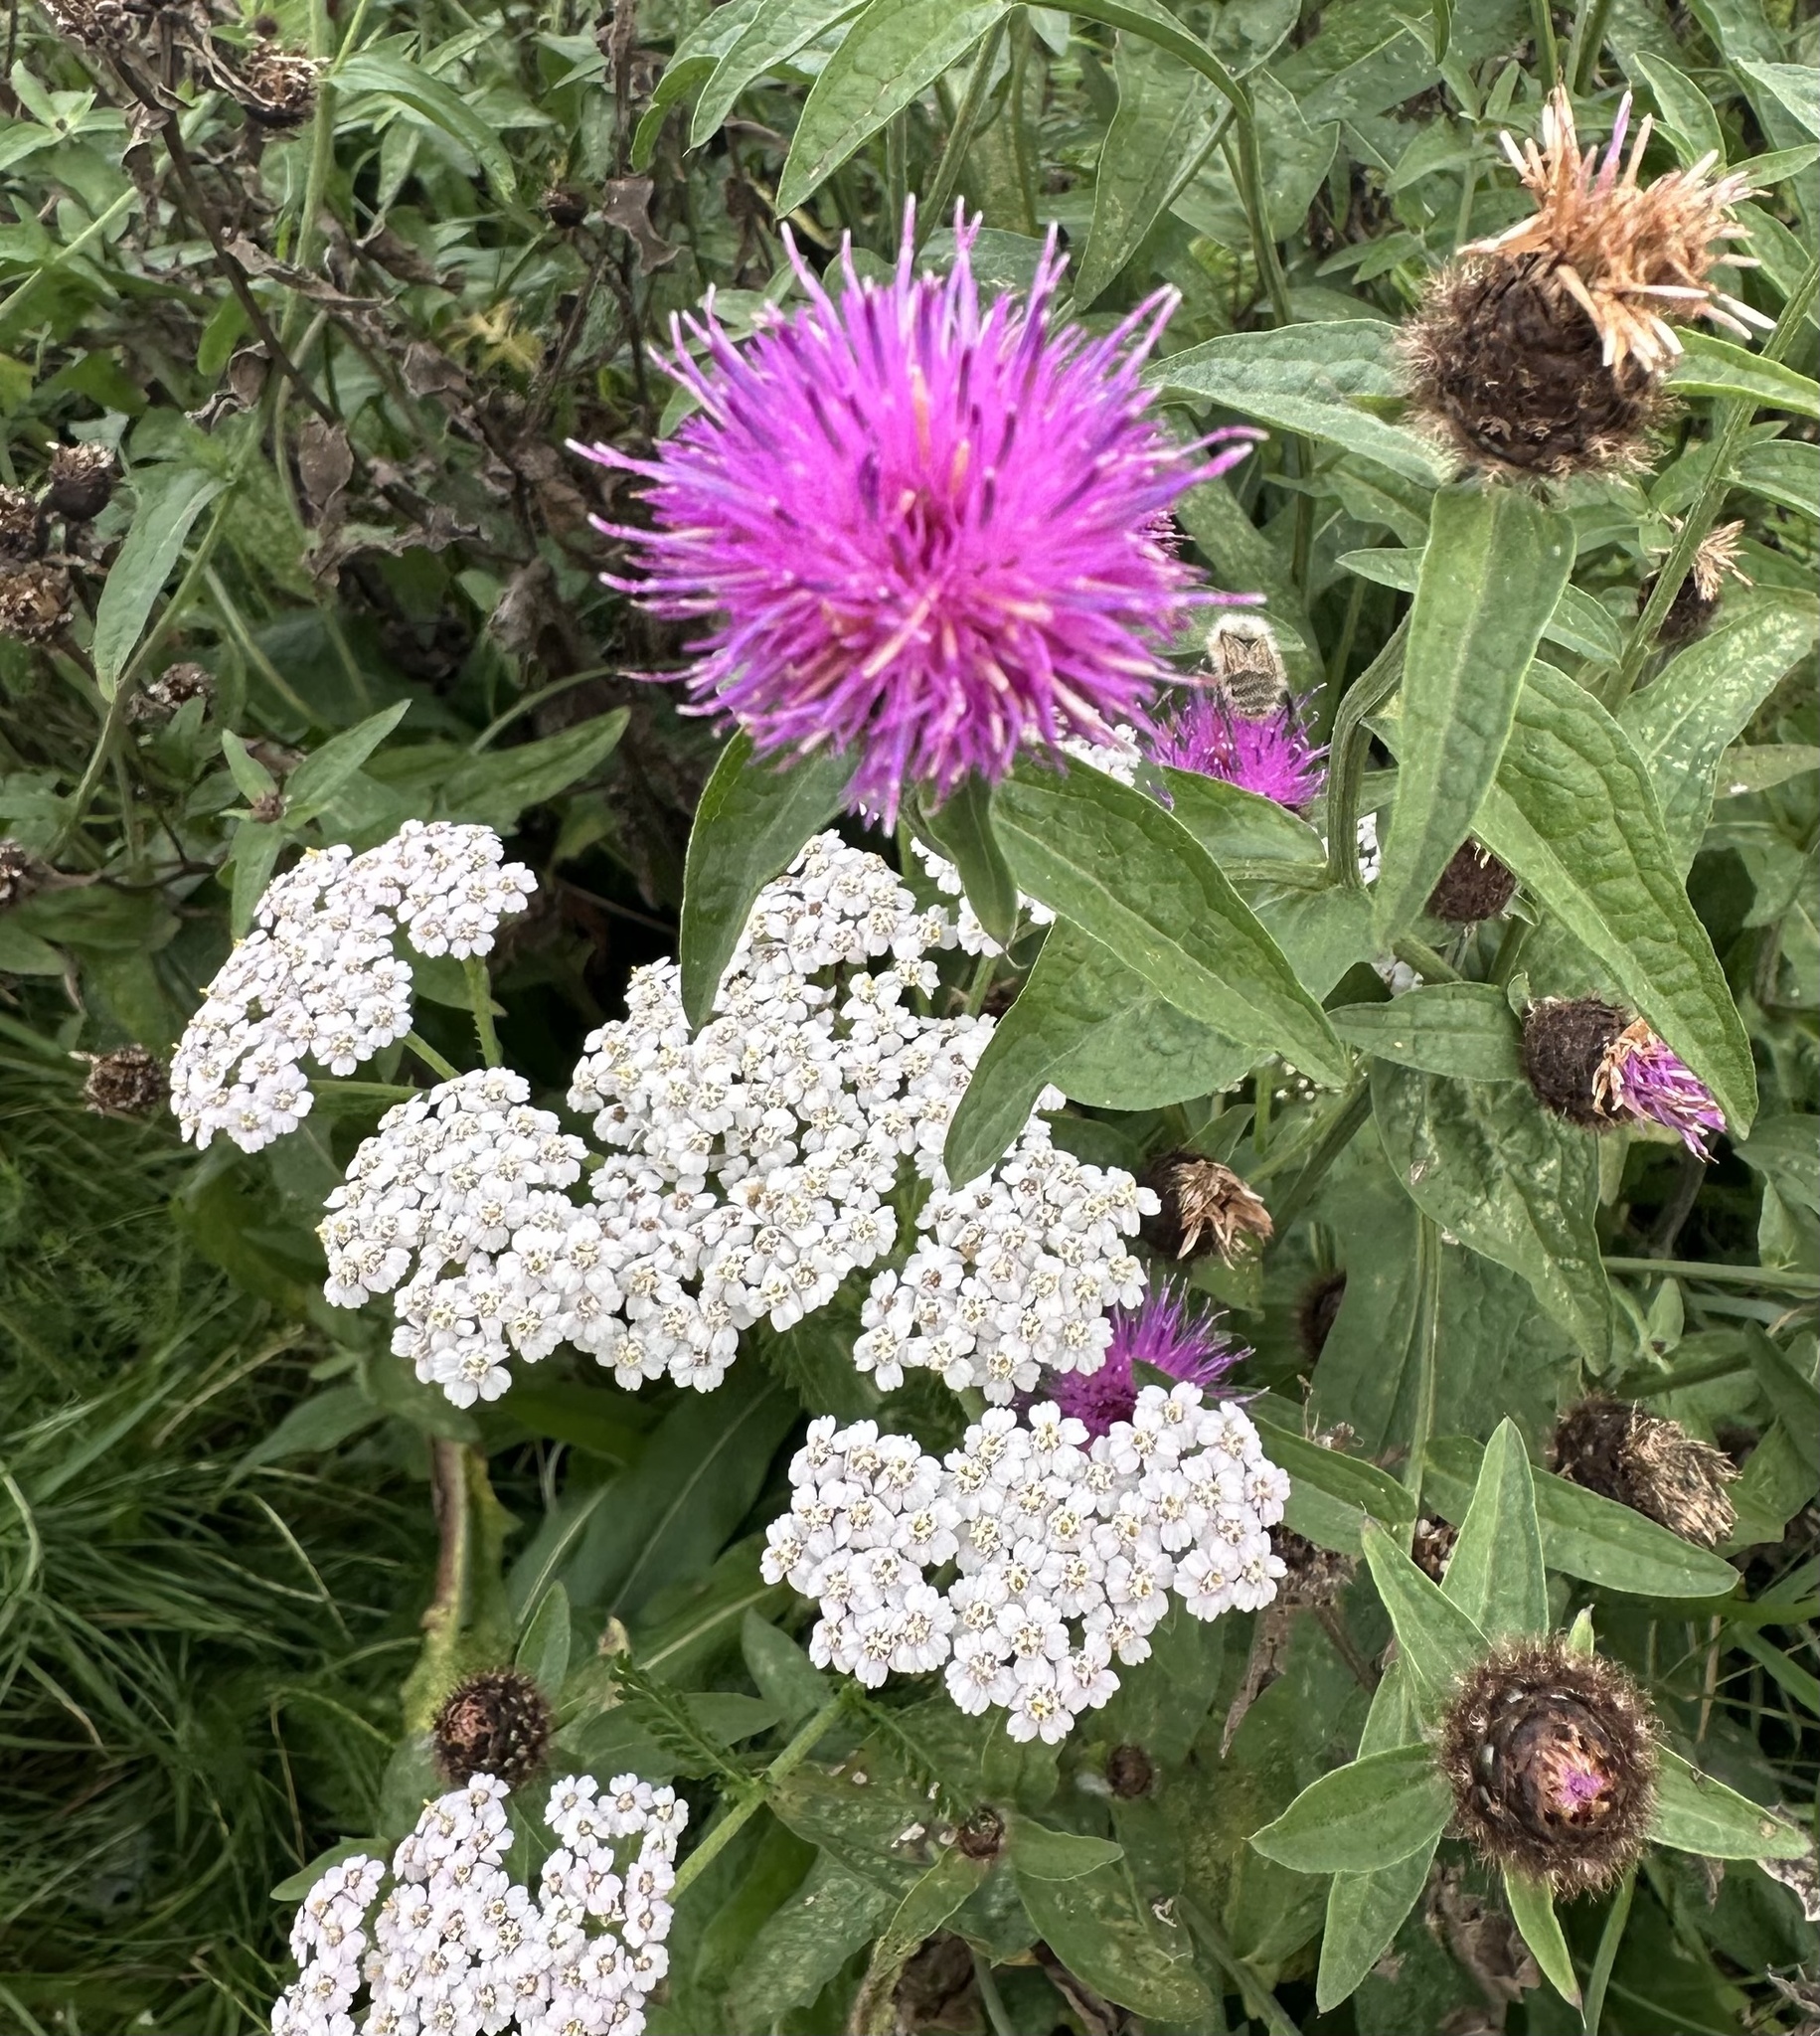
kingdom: Plantae
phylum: Tracheophyta
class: Magnoliopsida
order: Asterales
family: Asteraceae
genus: Achillea
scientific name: Achillea millefolium
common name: Yarrow
